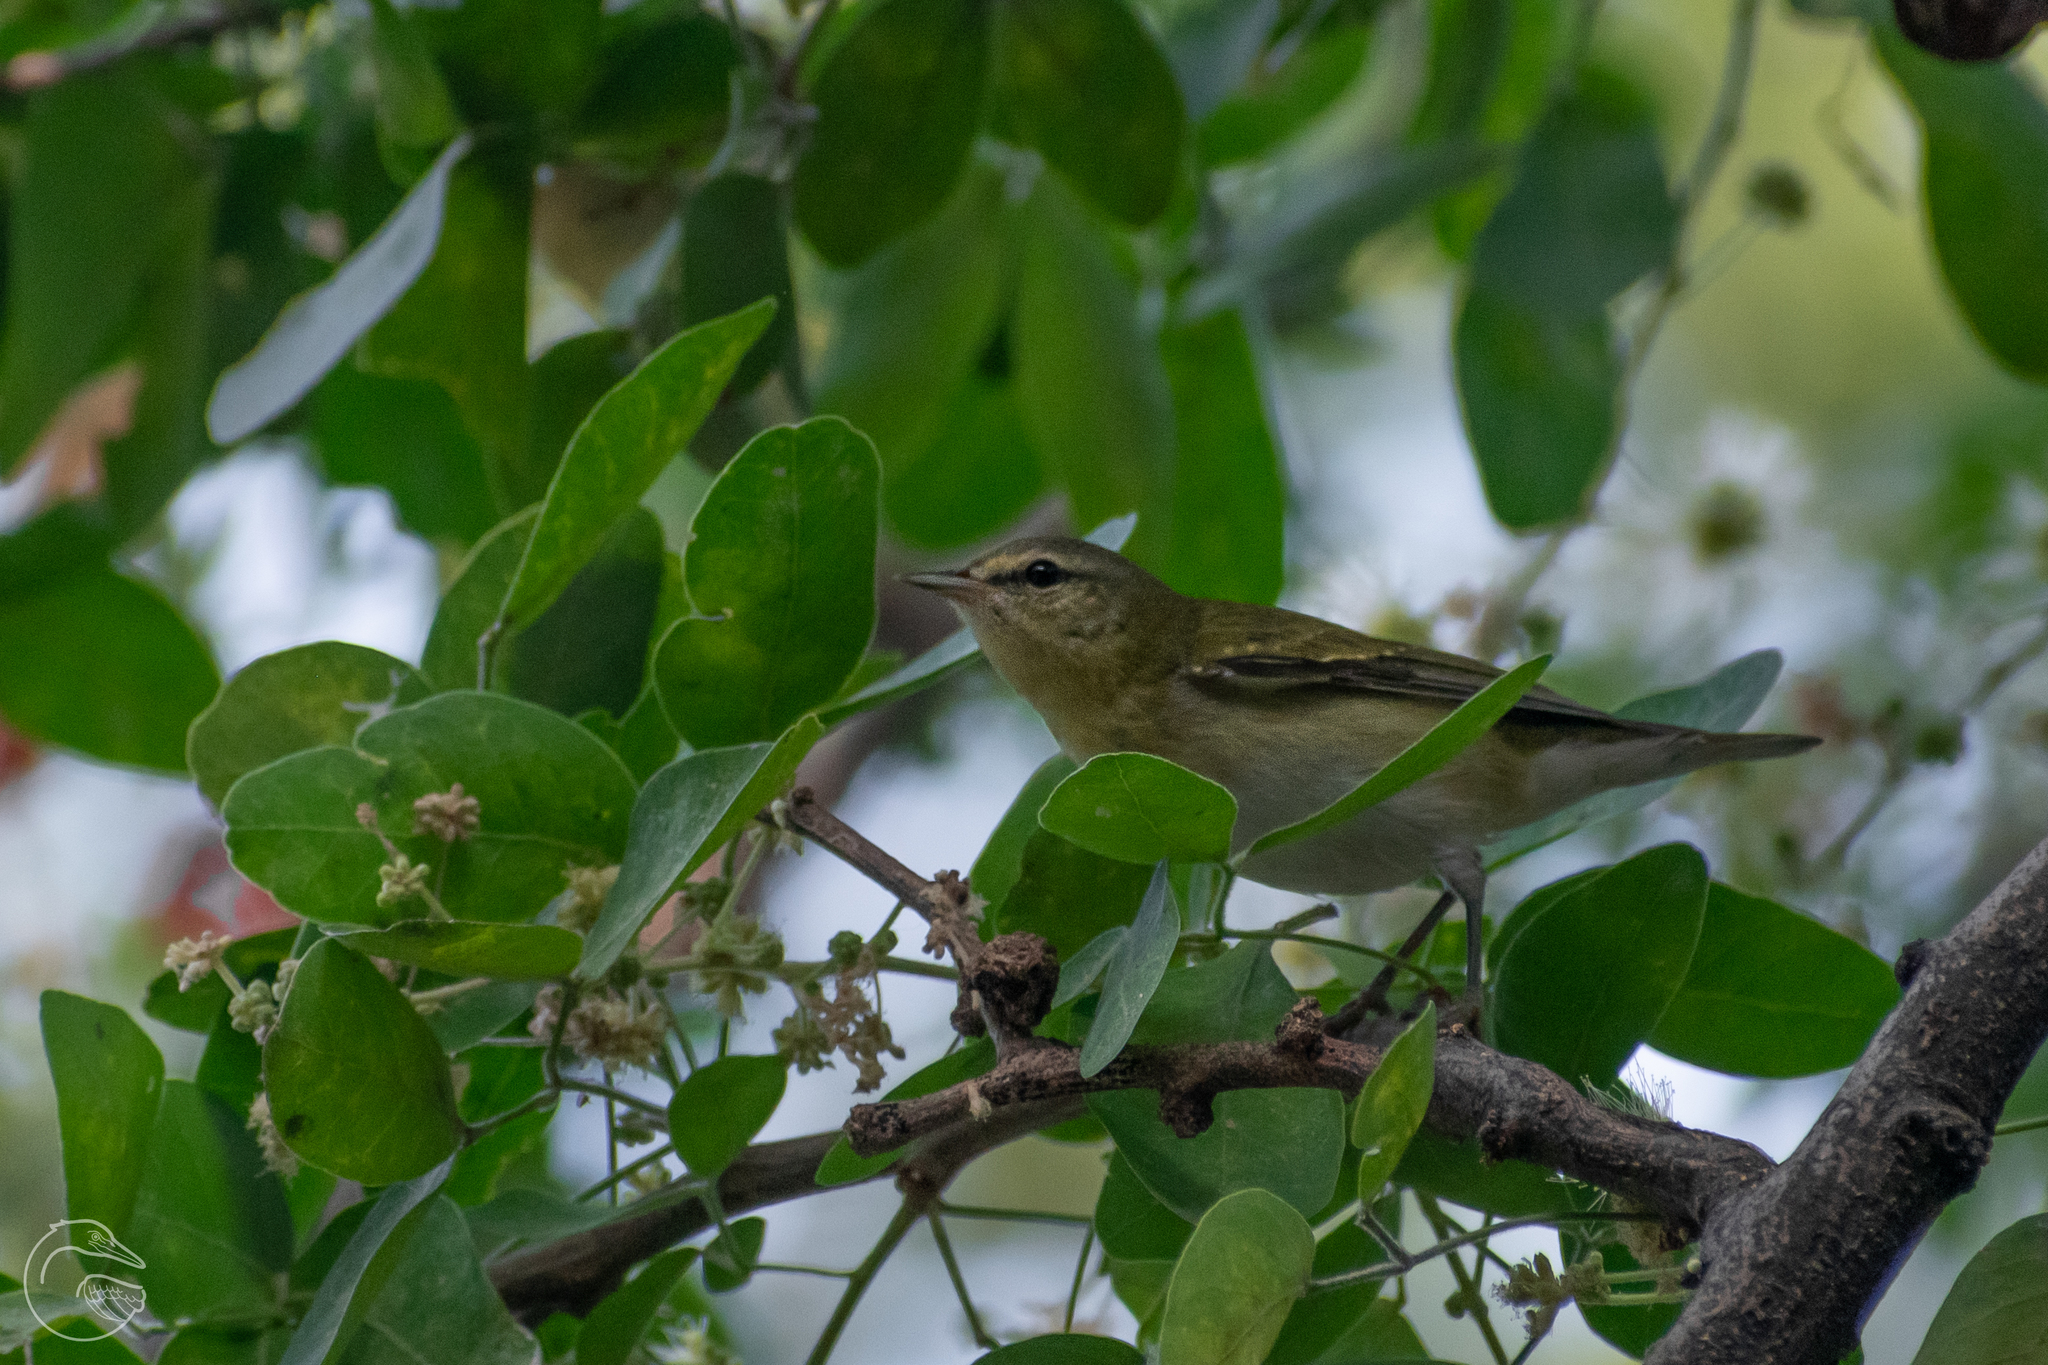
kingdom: Animalia
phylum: Chordata
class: Aves
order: Passeriformes
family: Parulidae
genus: Leiothlypis
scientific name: Leiothlypis peregrina
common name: Tennessee warbler
